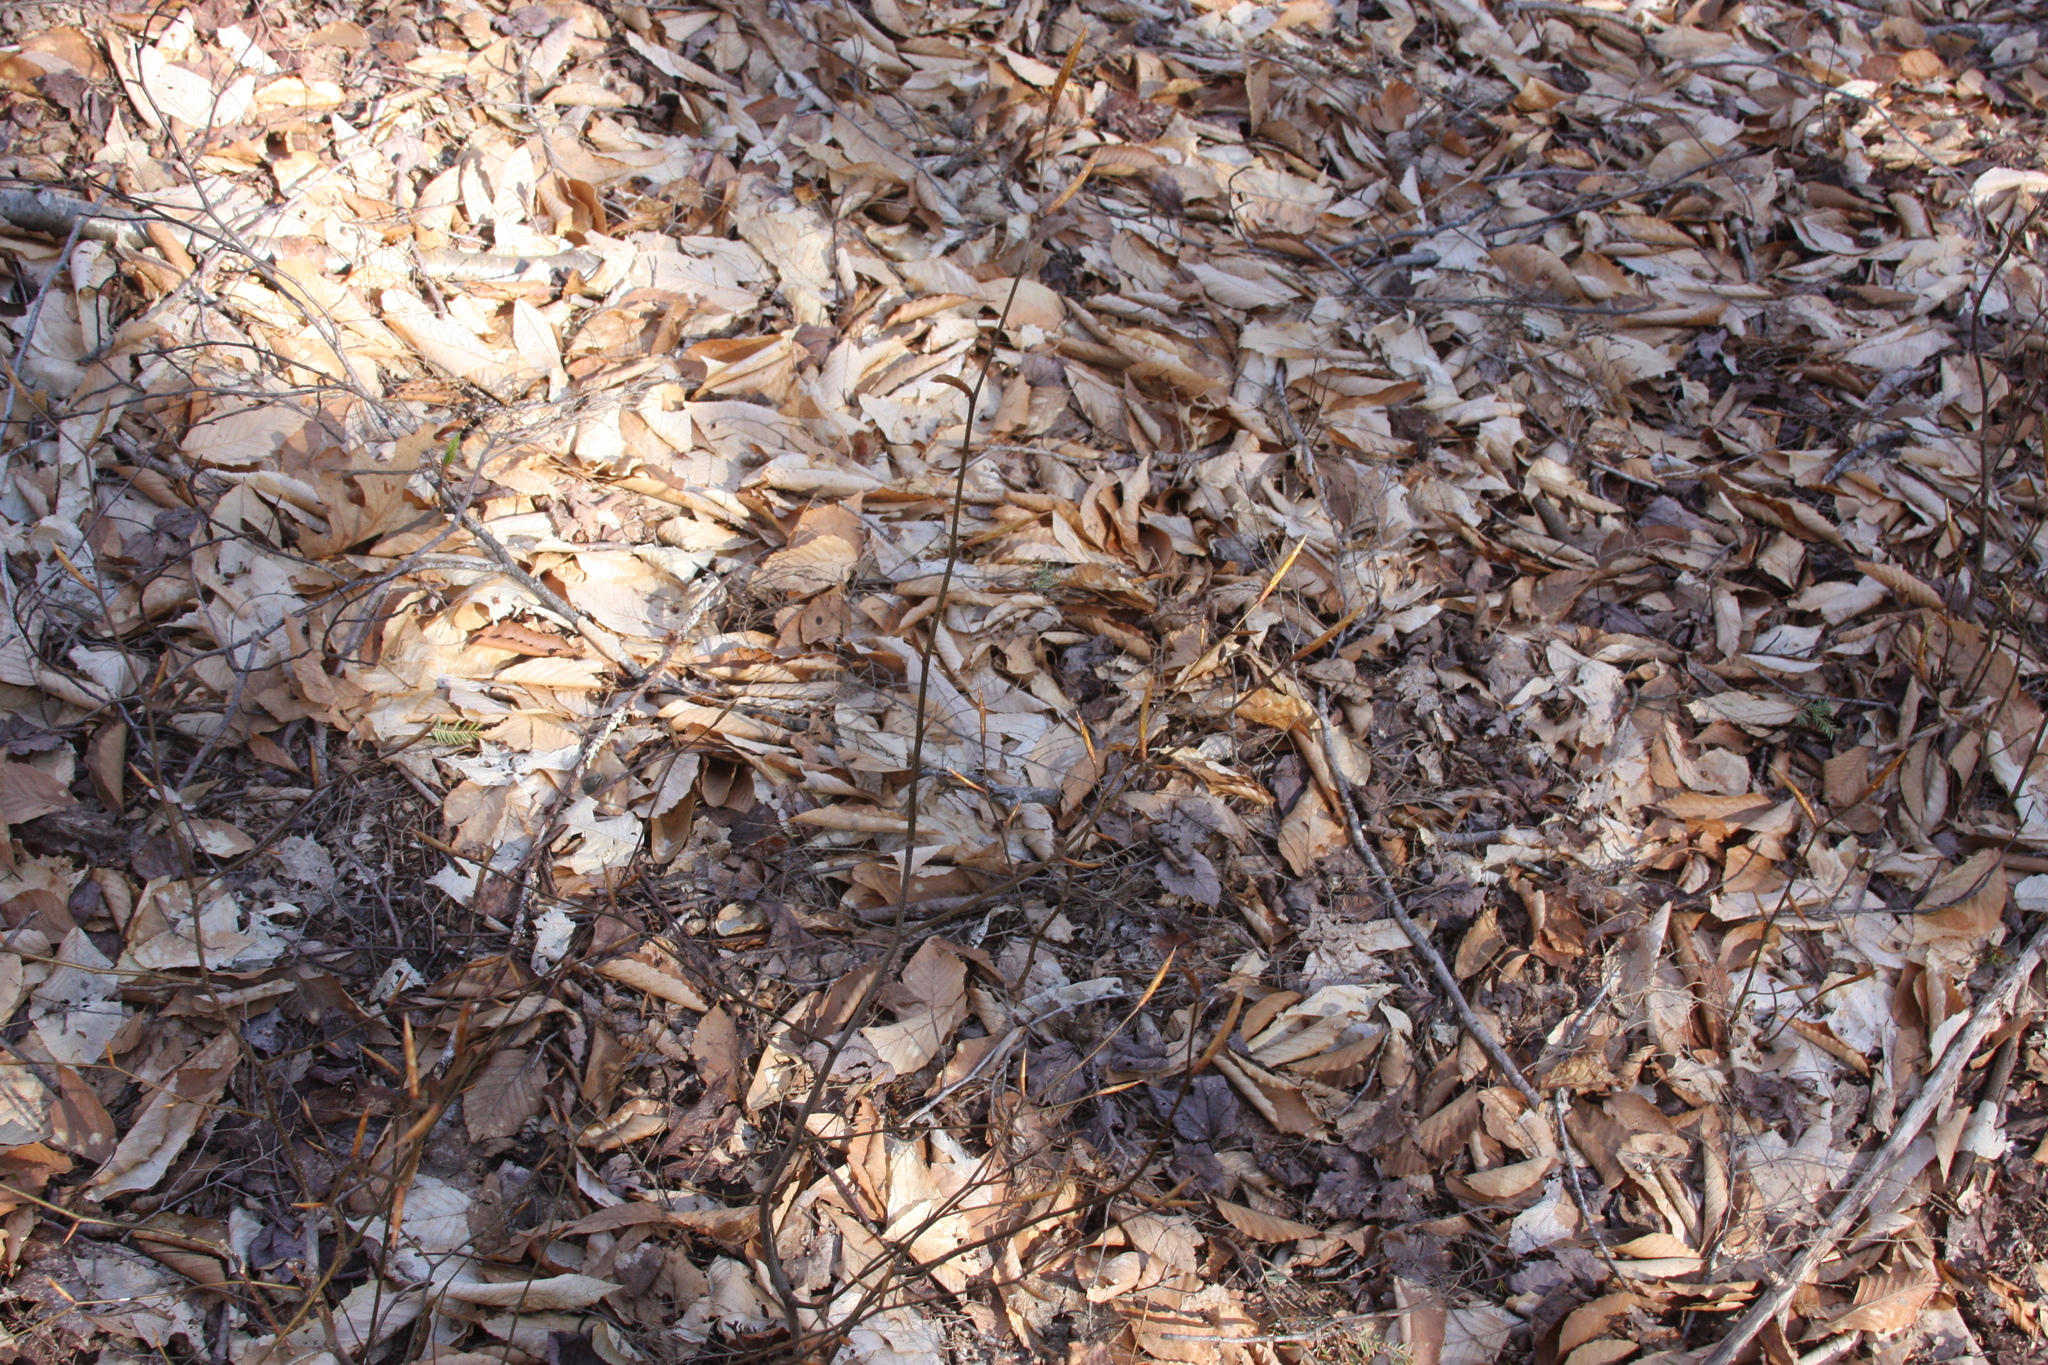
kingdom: Plantae
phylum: Tracheophyta
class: Magnoliopsida
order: Fagales
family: Fagaceae
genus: Fagus
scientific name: Fagus grandifolia
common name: American beech
